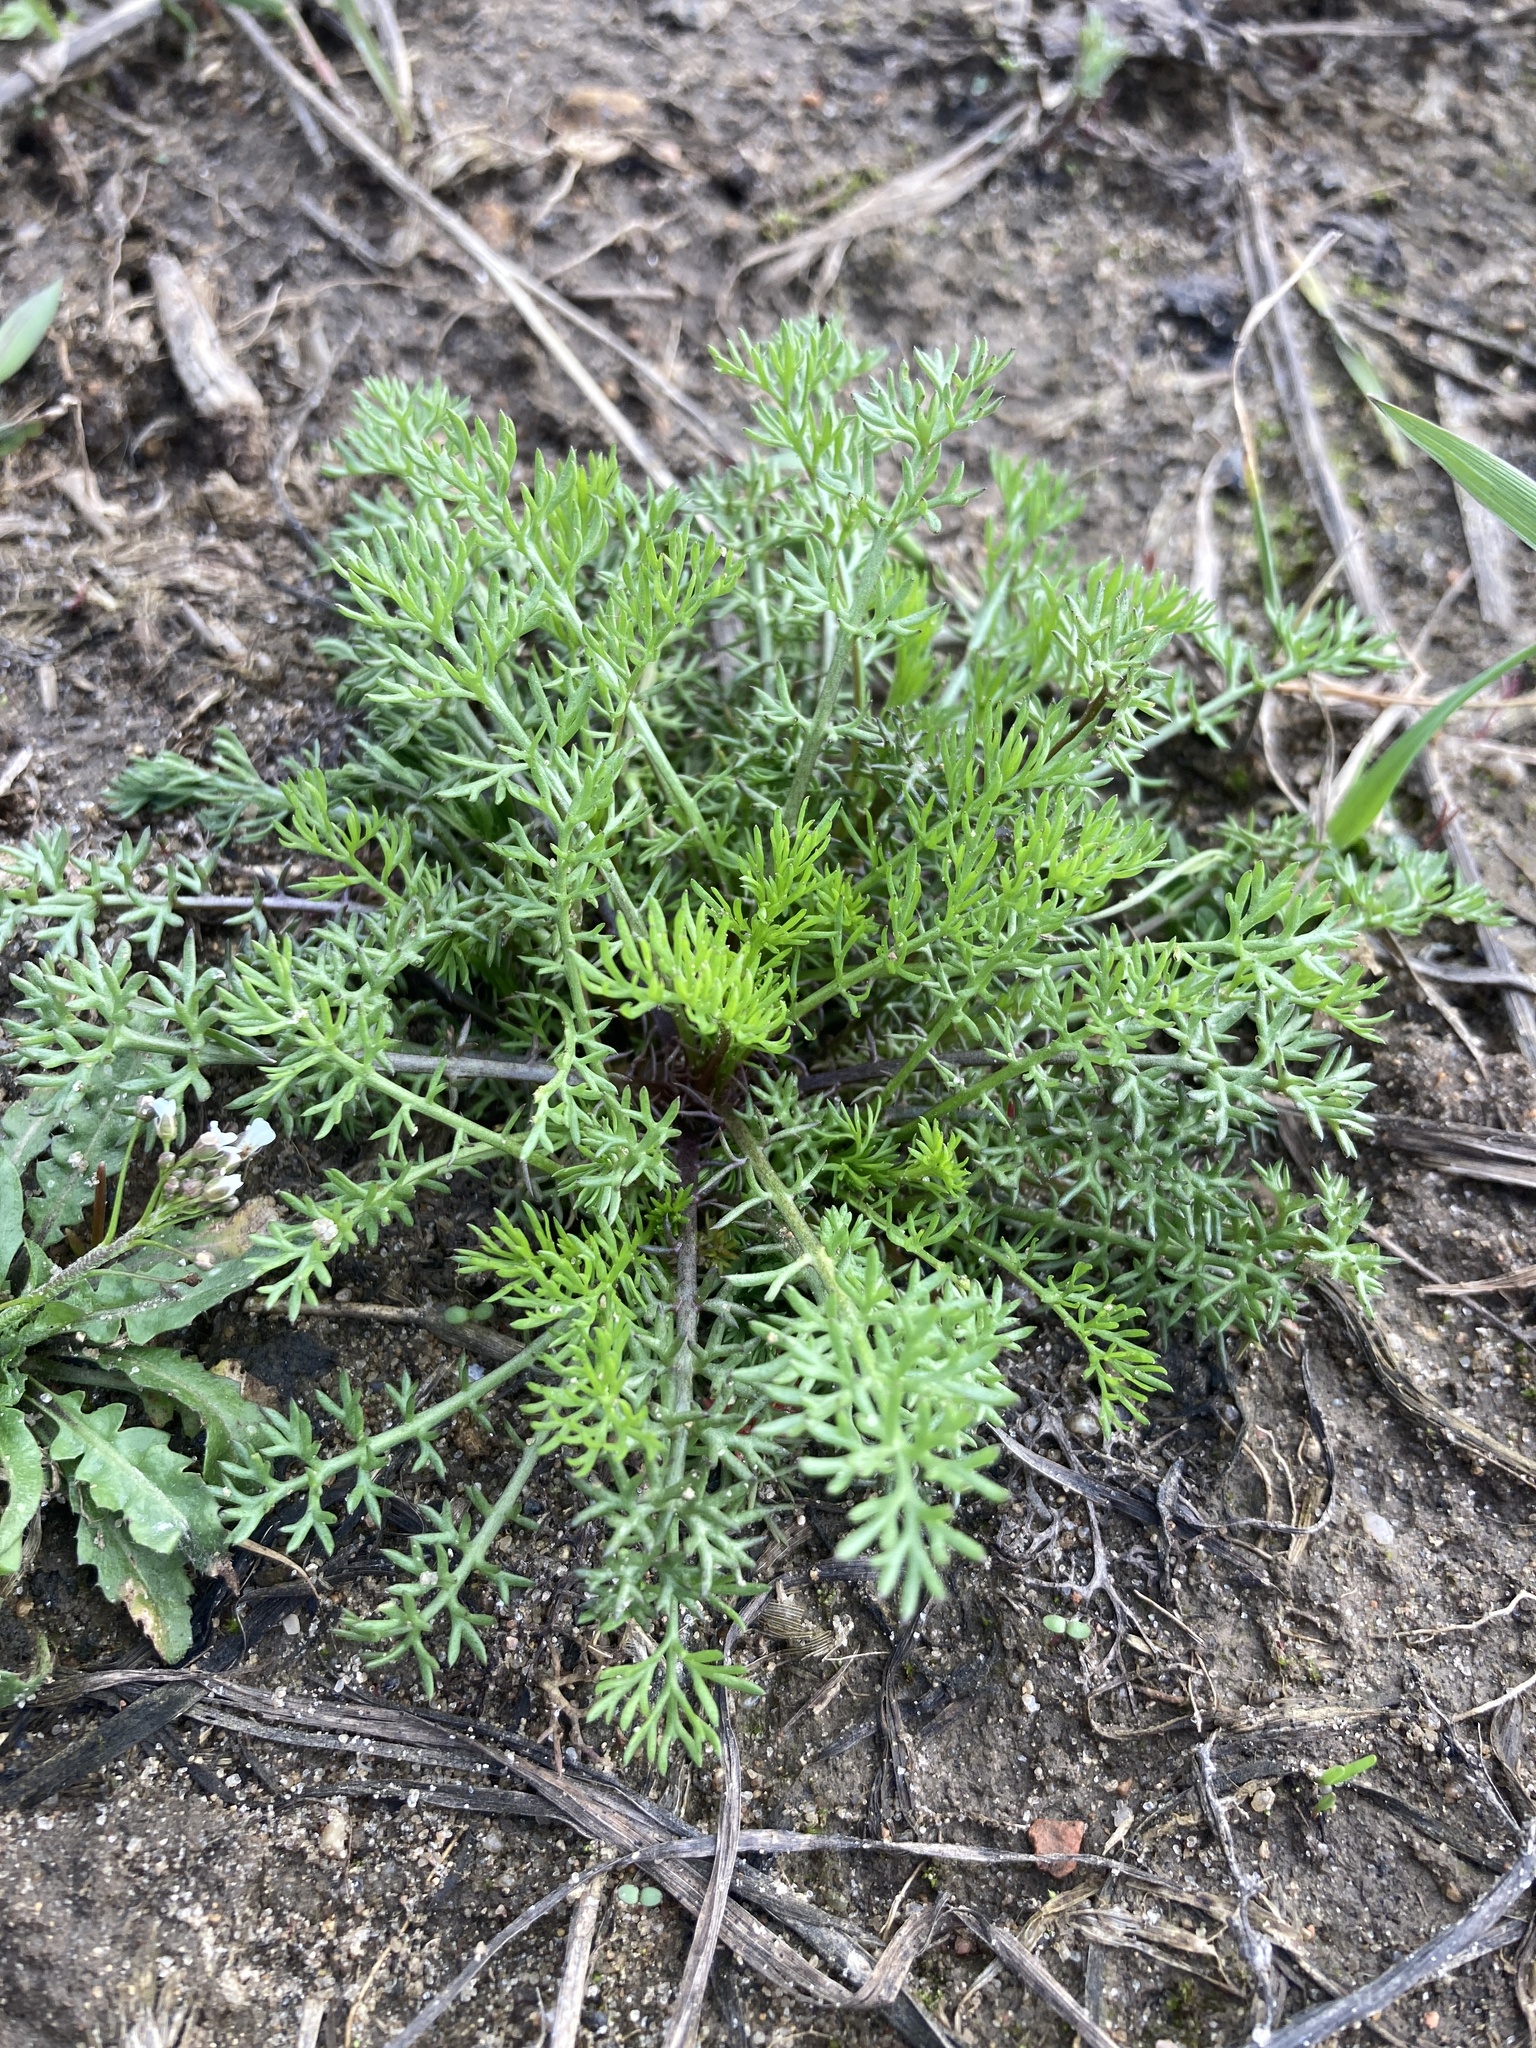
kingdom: Plantae
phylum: Tracheophyta
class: Magnoliopsida
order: Asterales
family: Asteraceae
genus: Tripleurospermum
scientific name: Tripleurospermum inodorum
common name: Scentless mayweed
